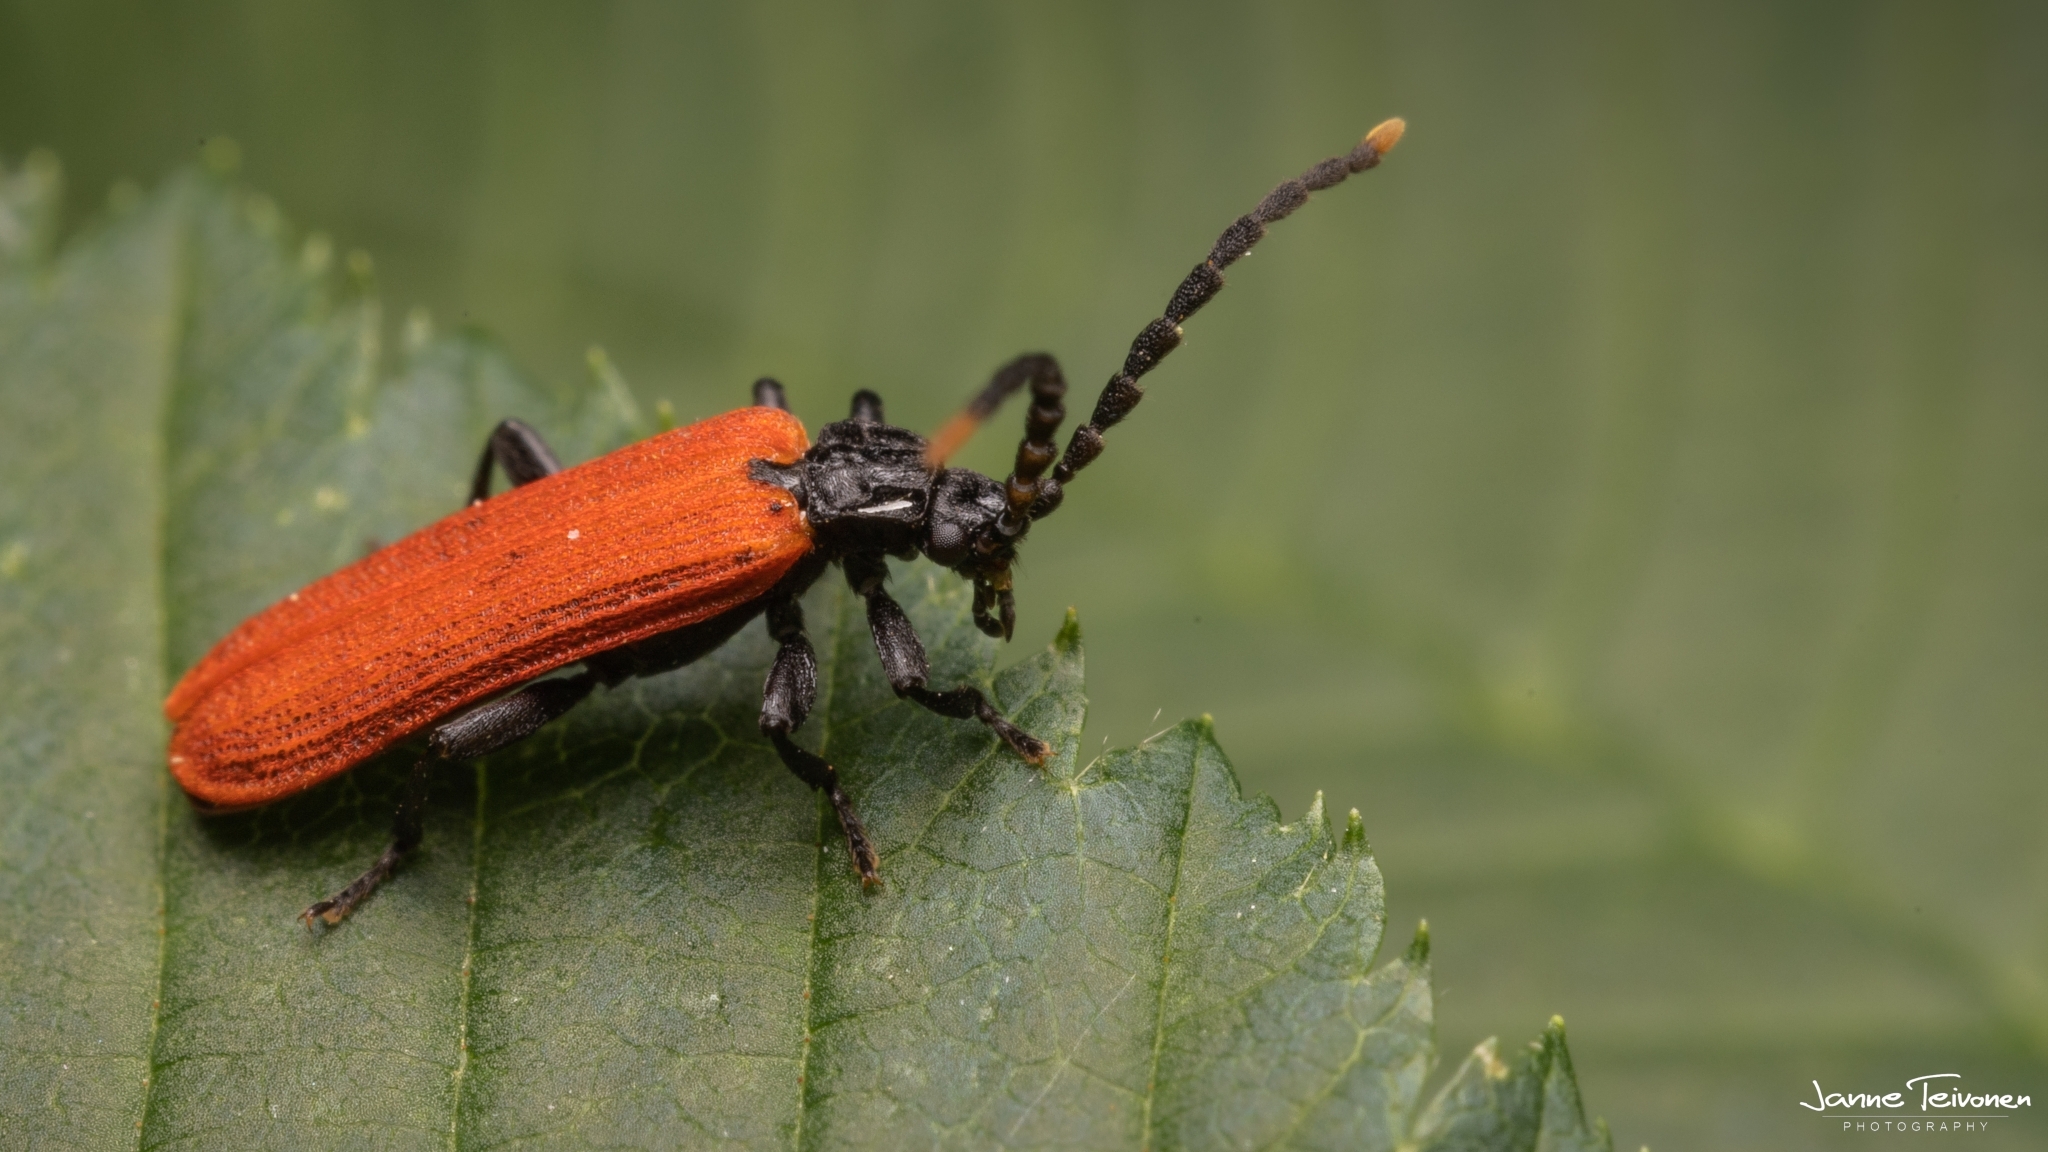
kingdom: Animalia
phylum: Arthropoda
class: Insecta
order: Coleoptera
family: Lycidae
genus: Platycis
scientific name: Platycis minutus
